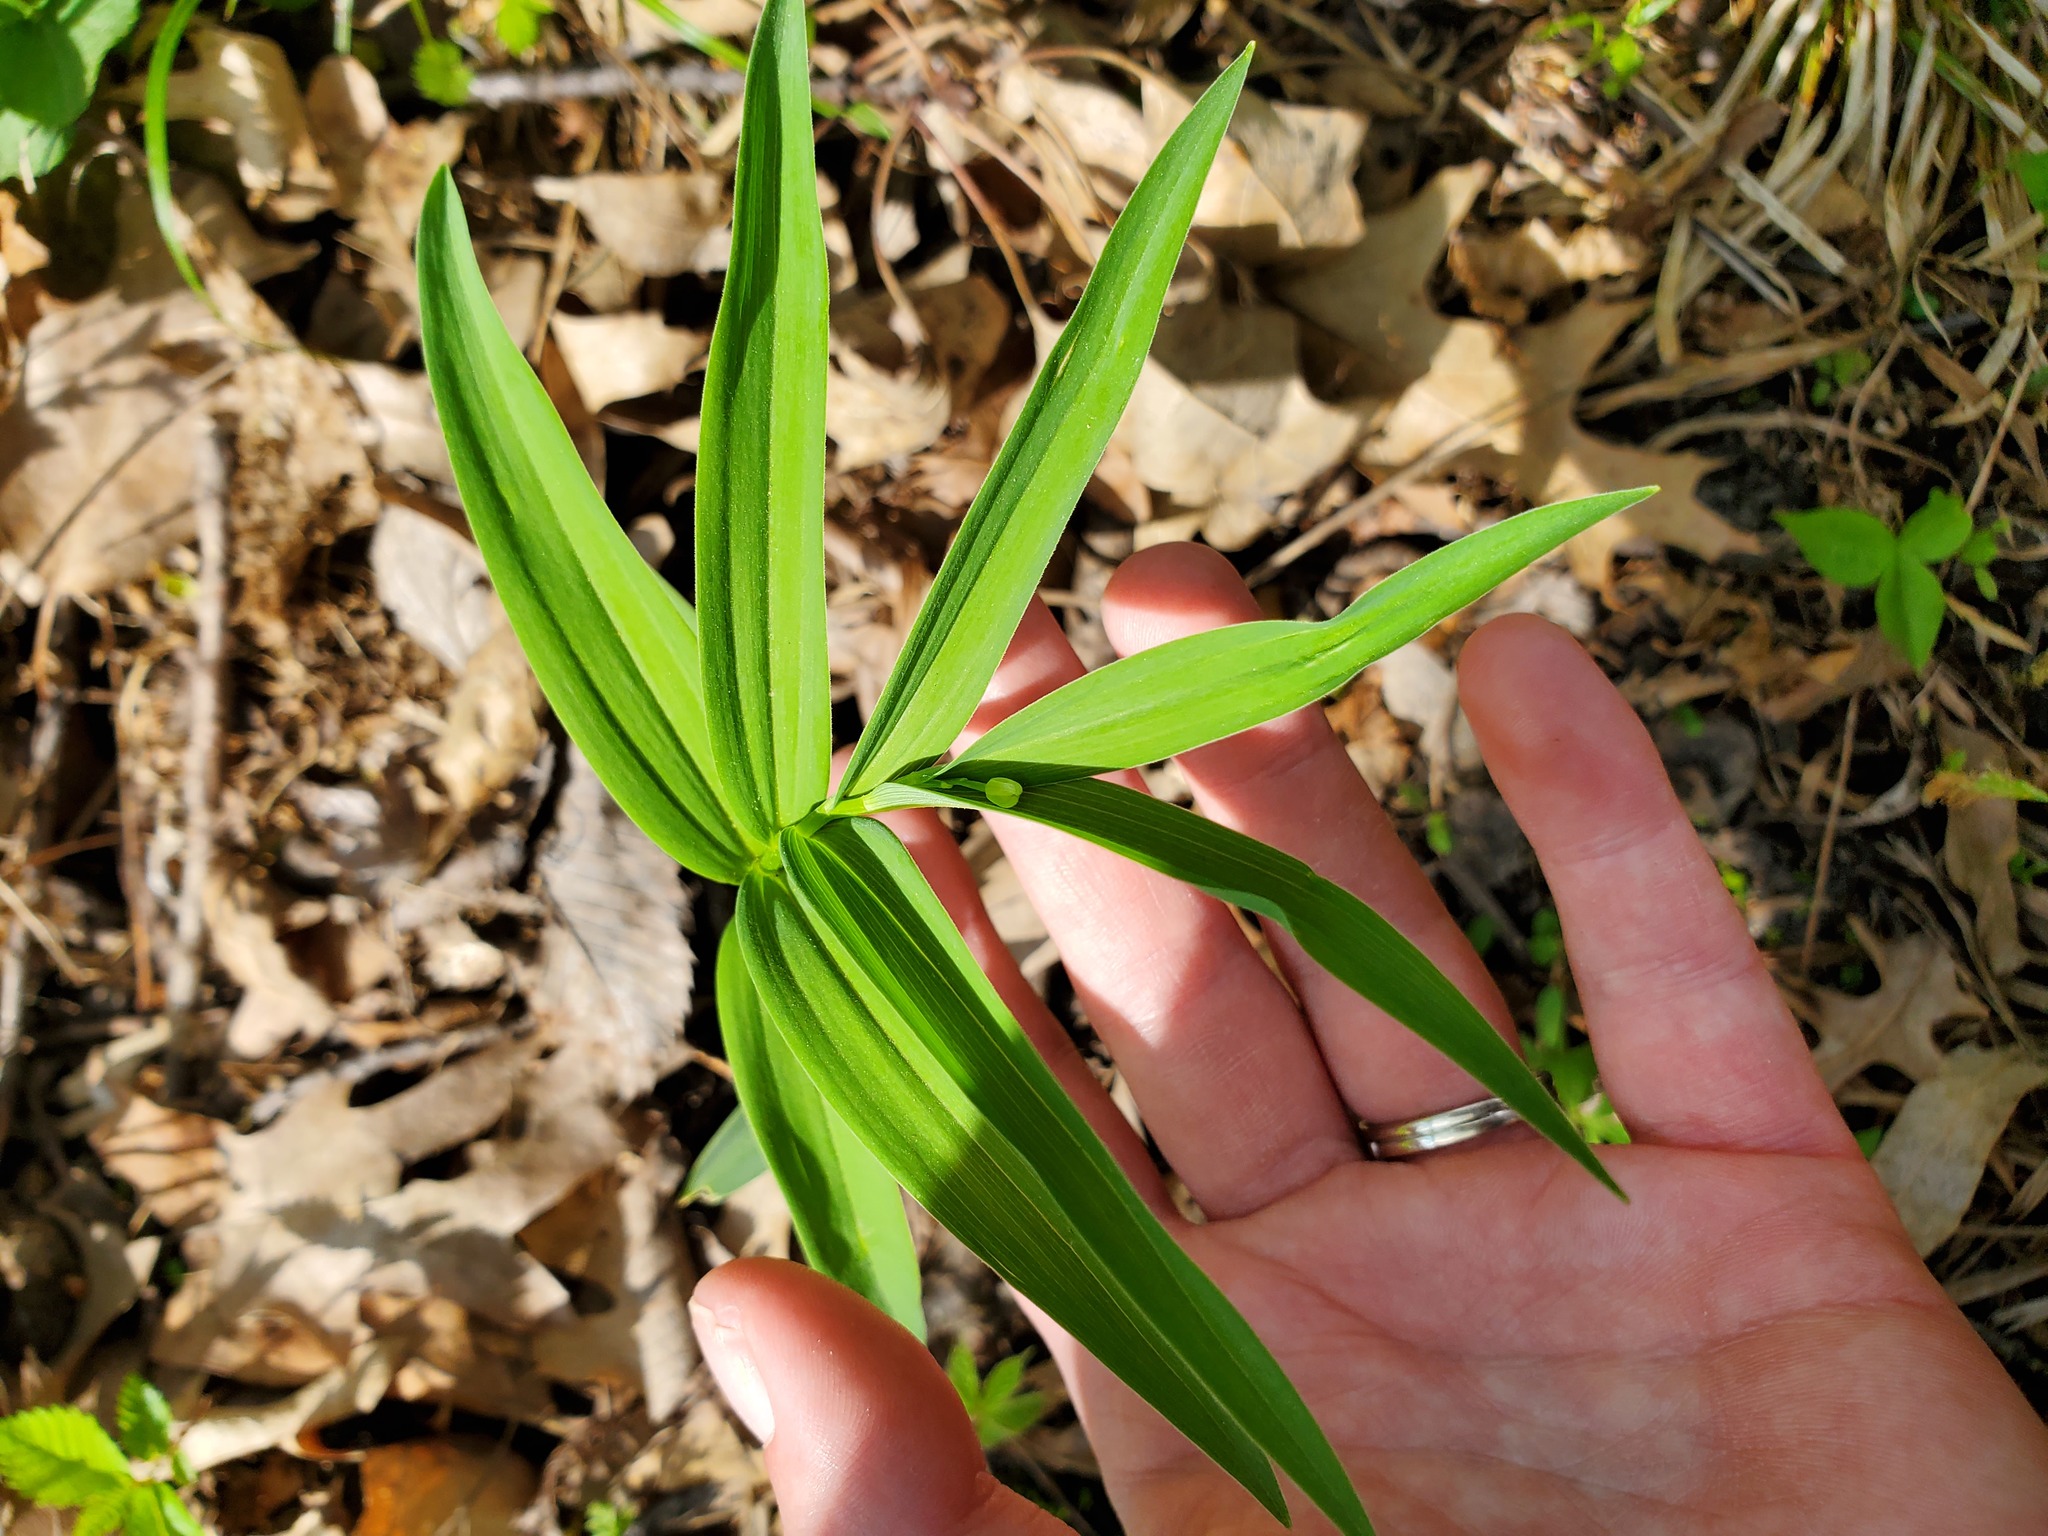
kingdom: Plantae
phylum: Tracheophyta
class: Liliopsida
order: Asparagales
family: Asparagaceae
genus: Maianthemum
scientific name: Maianthemum stellatum
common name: Little false solomon's seal
